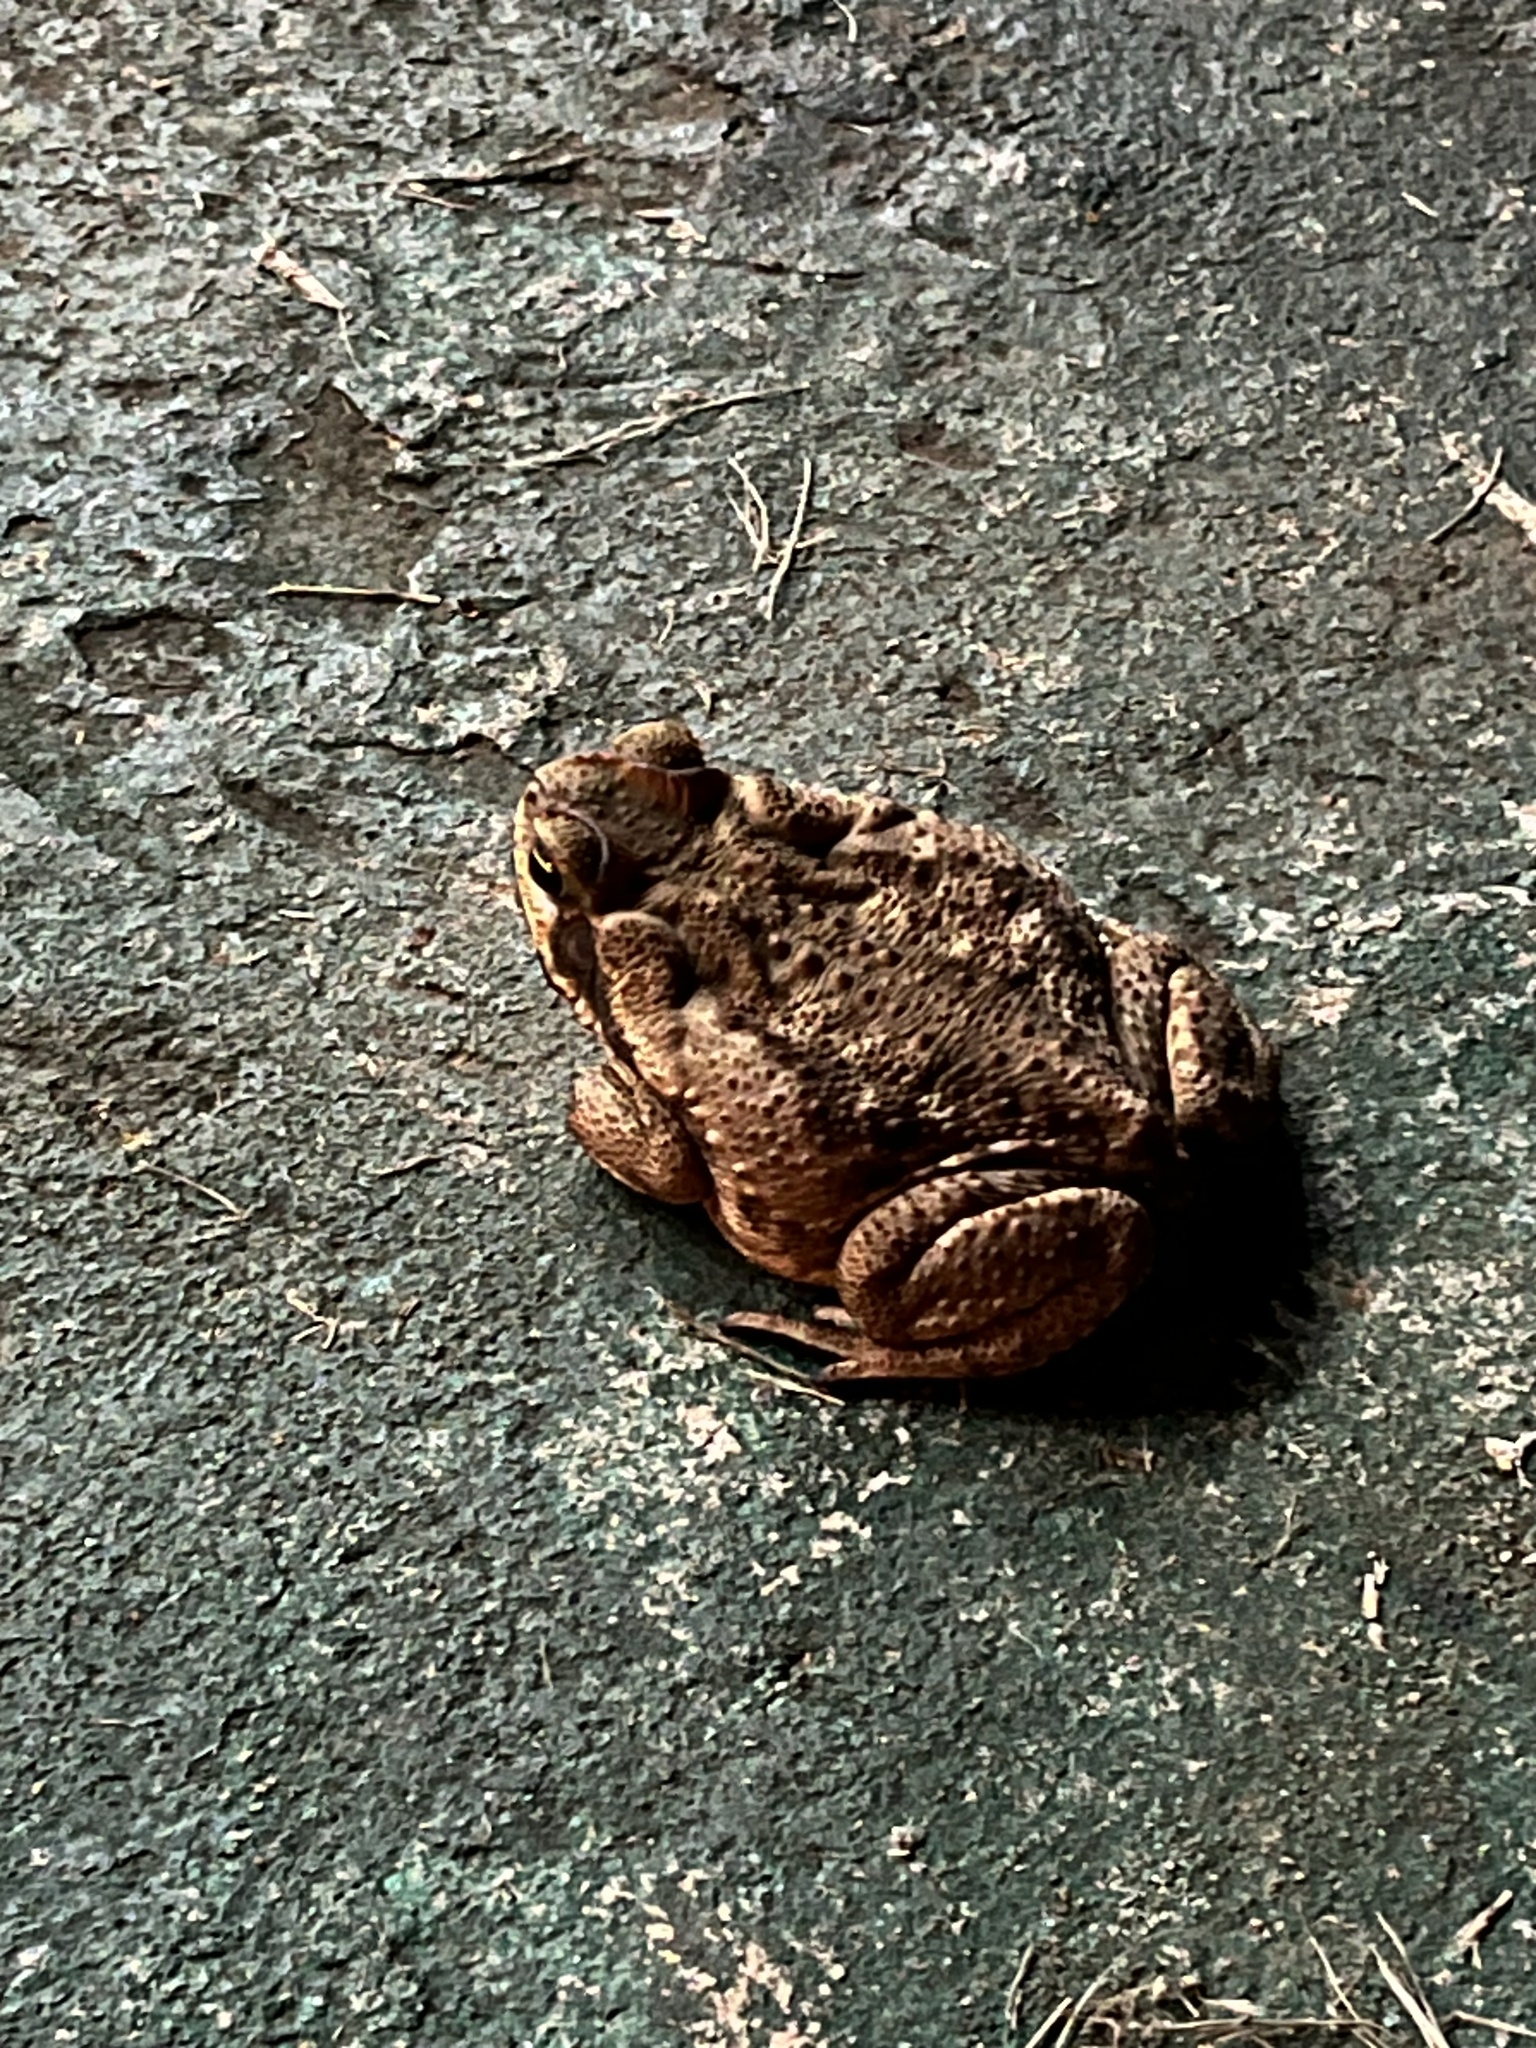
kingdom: Animalia
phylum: Chordata
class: Amphibia
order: Anura
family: Bufonidae
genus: Rhinella
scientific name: Rhinella diptycha
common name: Cope's toad
